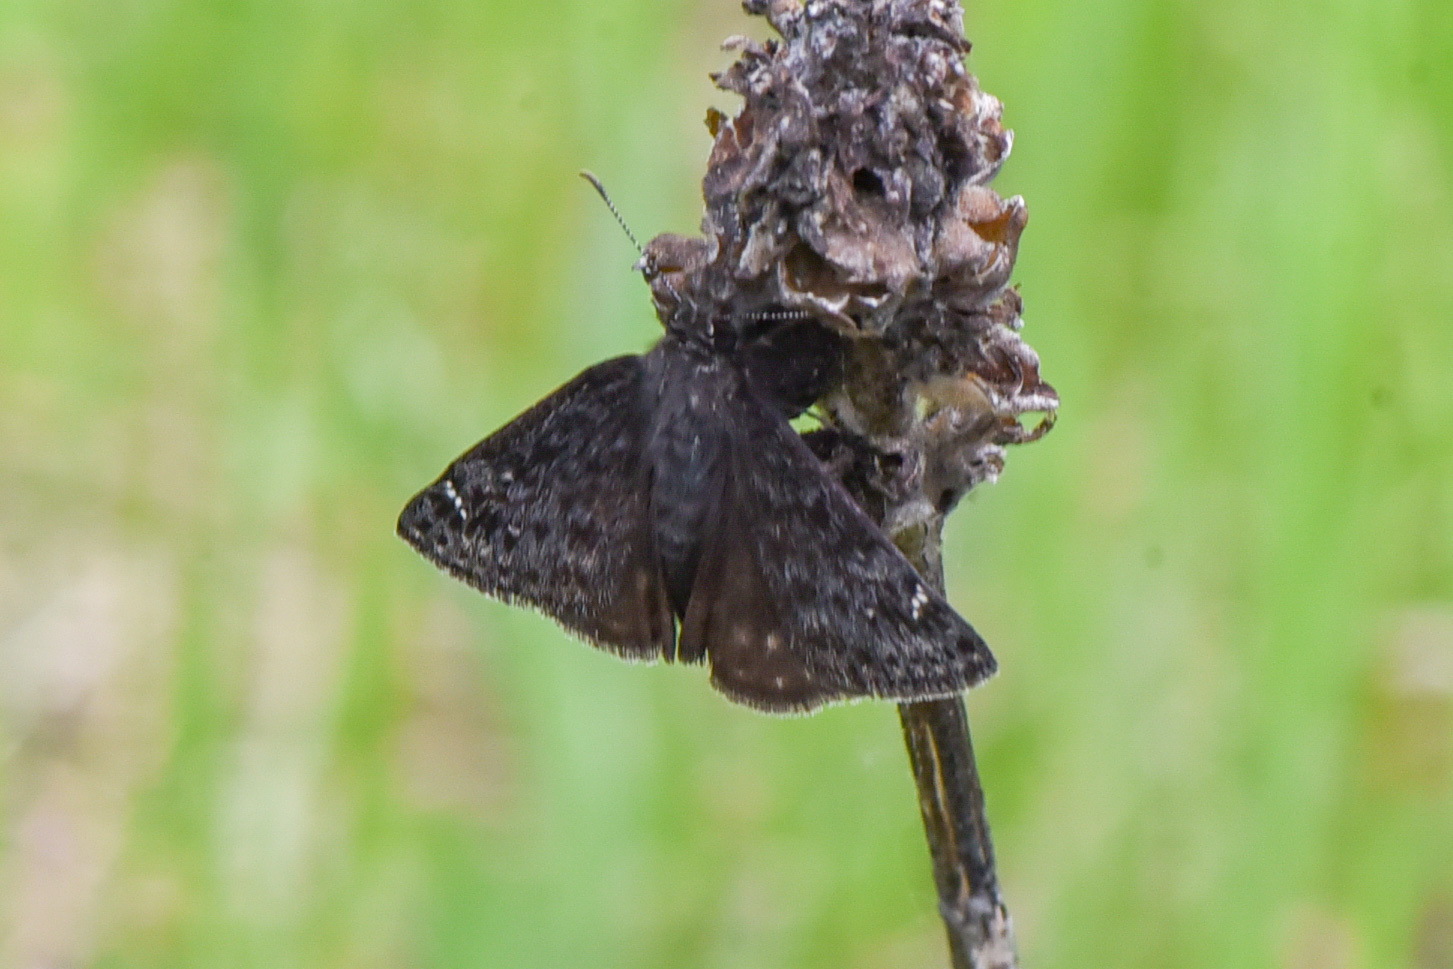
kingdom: Animalia
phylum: Arthropoda
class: Insecta
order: Lepidoptera
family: Hesperiidae
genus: Erynnis
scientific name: Erynnis persius
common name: Persius duskywing
